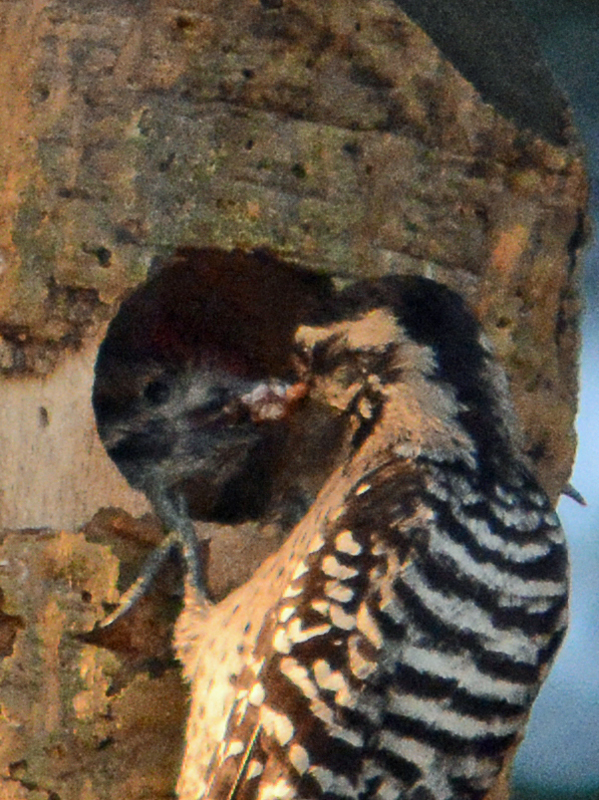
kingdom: Animalia
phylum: Chordata
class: Aves
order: Piciformes
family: Picidae
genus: Dryobates
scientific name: Dryobates scalaris
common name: Ladder-backed woodpecker
